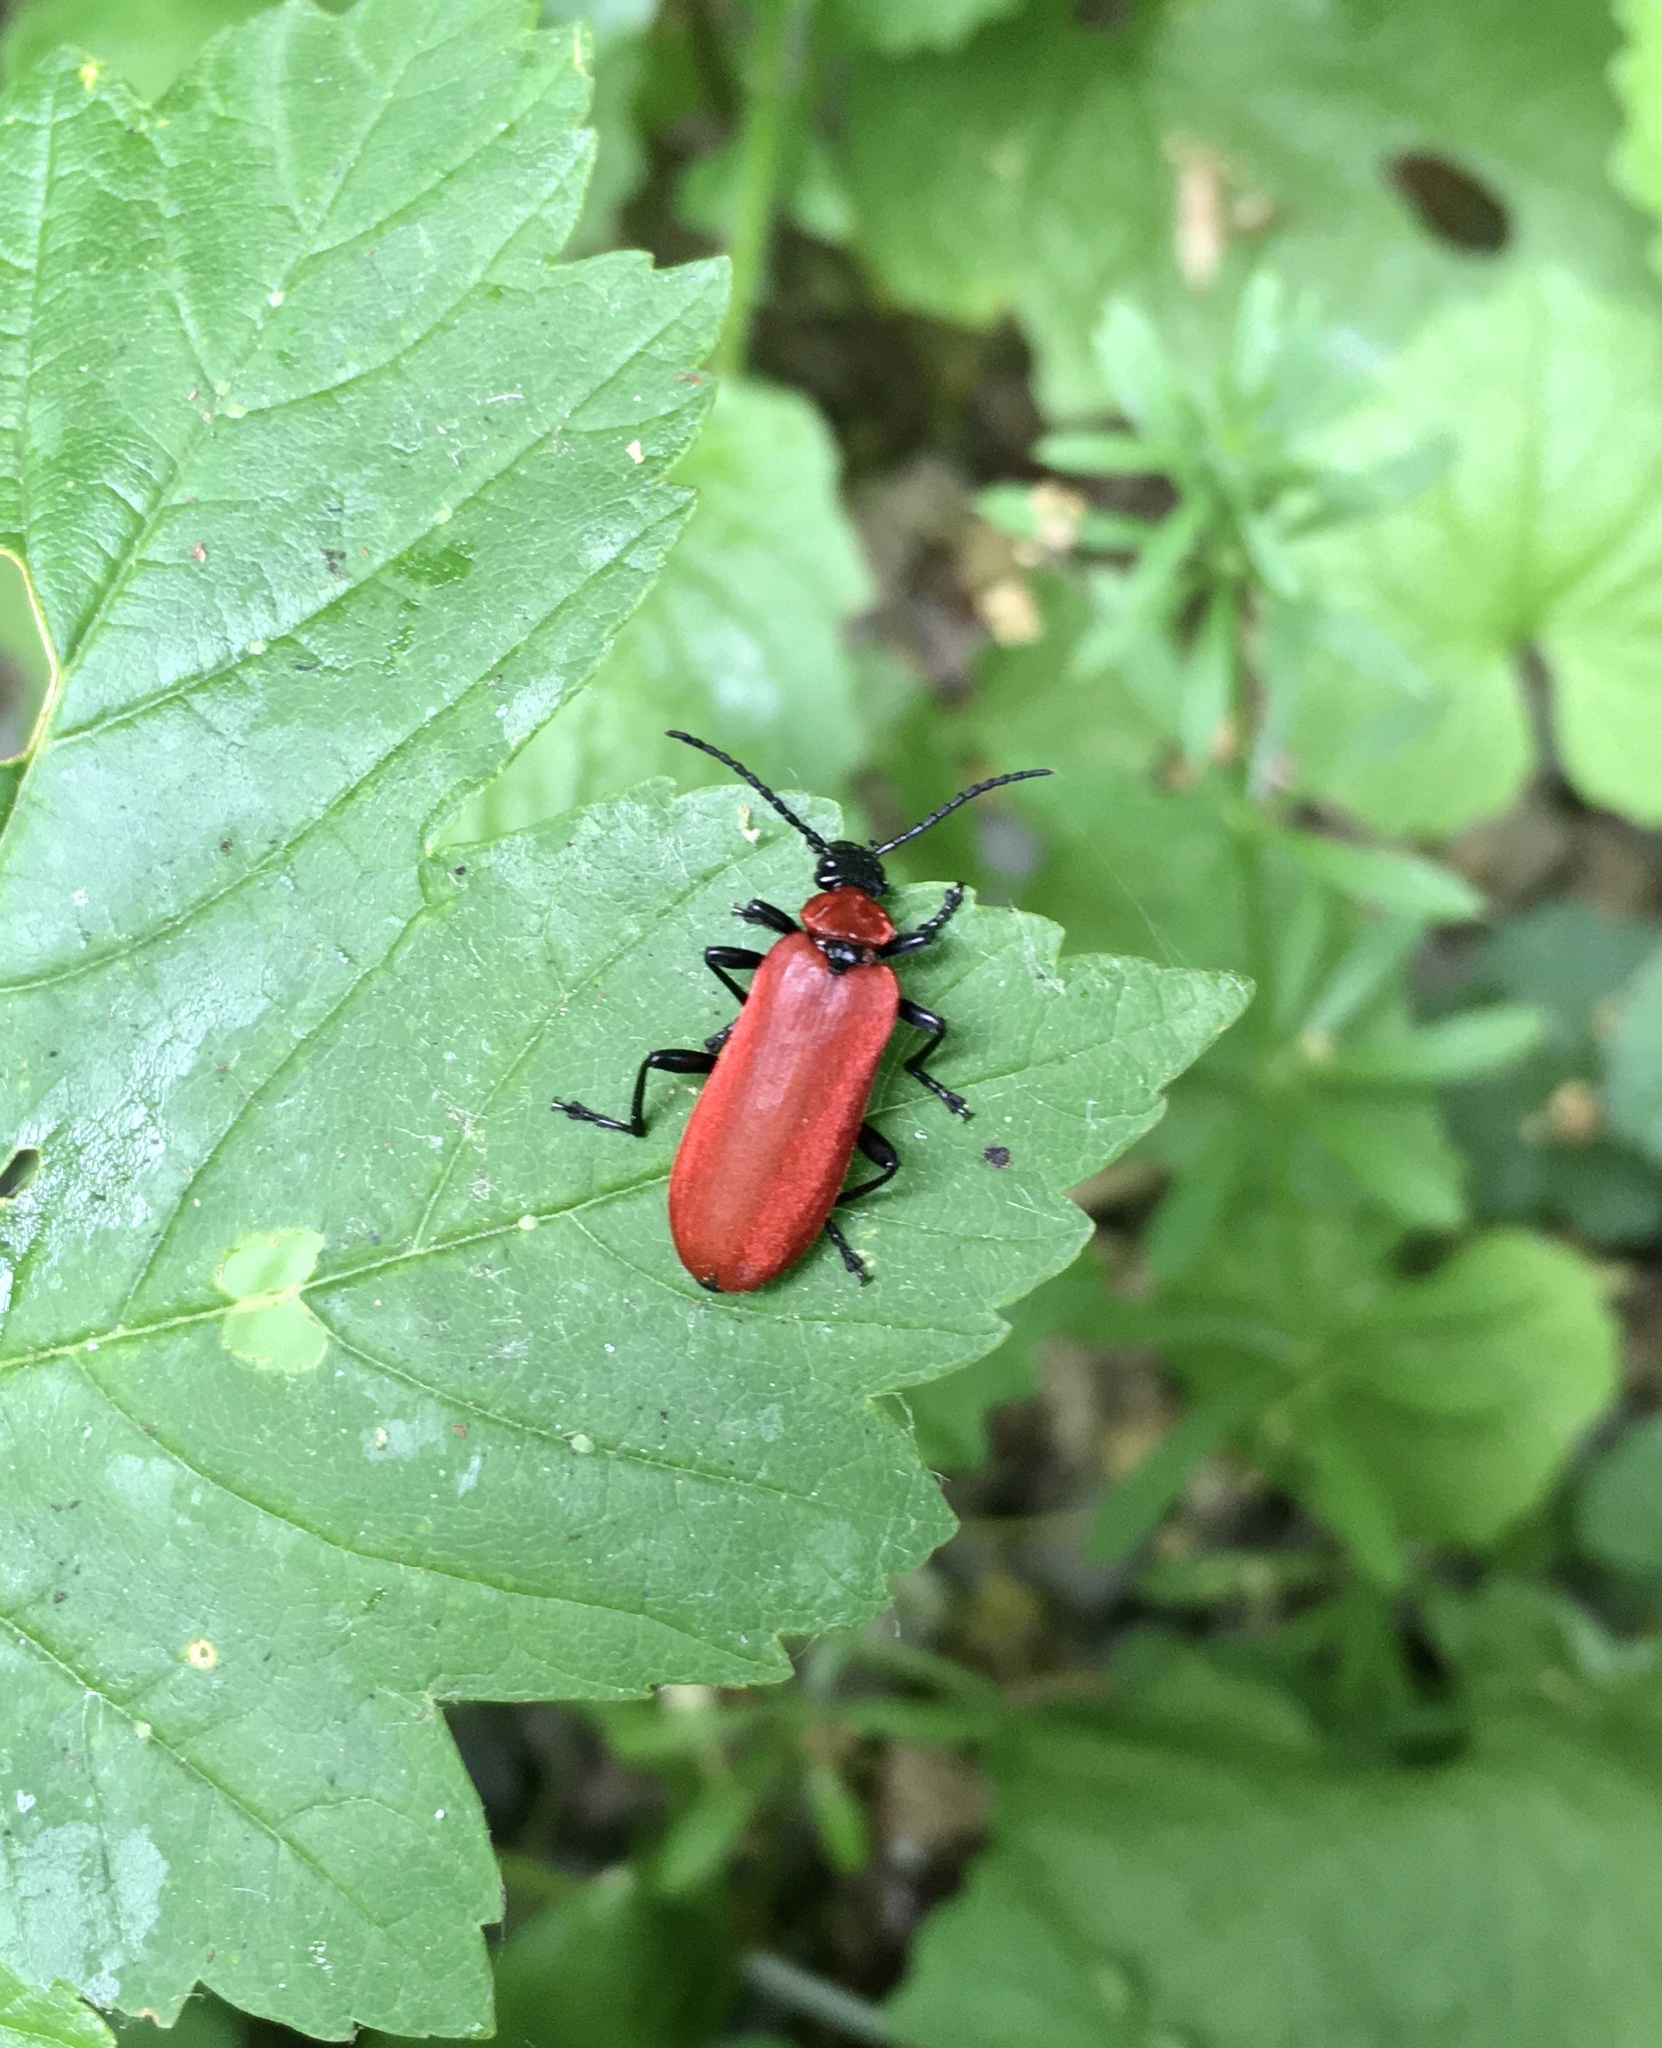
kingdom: Animalia
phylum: Arthropoda
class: Insecta
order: Coleoptera
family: Pyrochroidae
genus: Pyrochroa
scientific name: Pyrochroa coccinea
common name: Black-headed cardinal beetle
